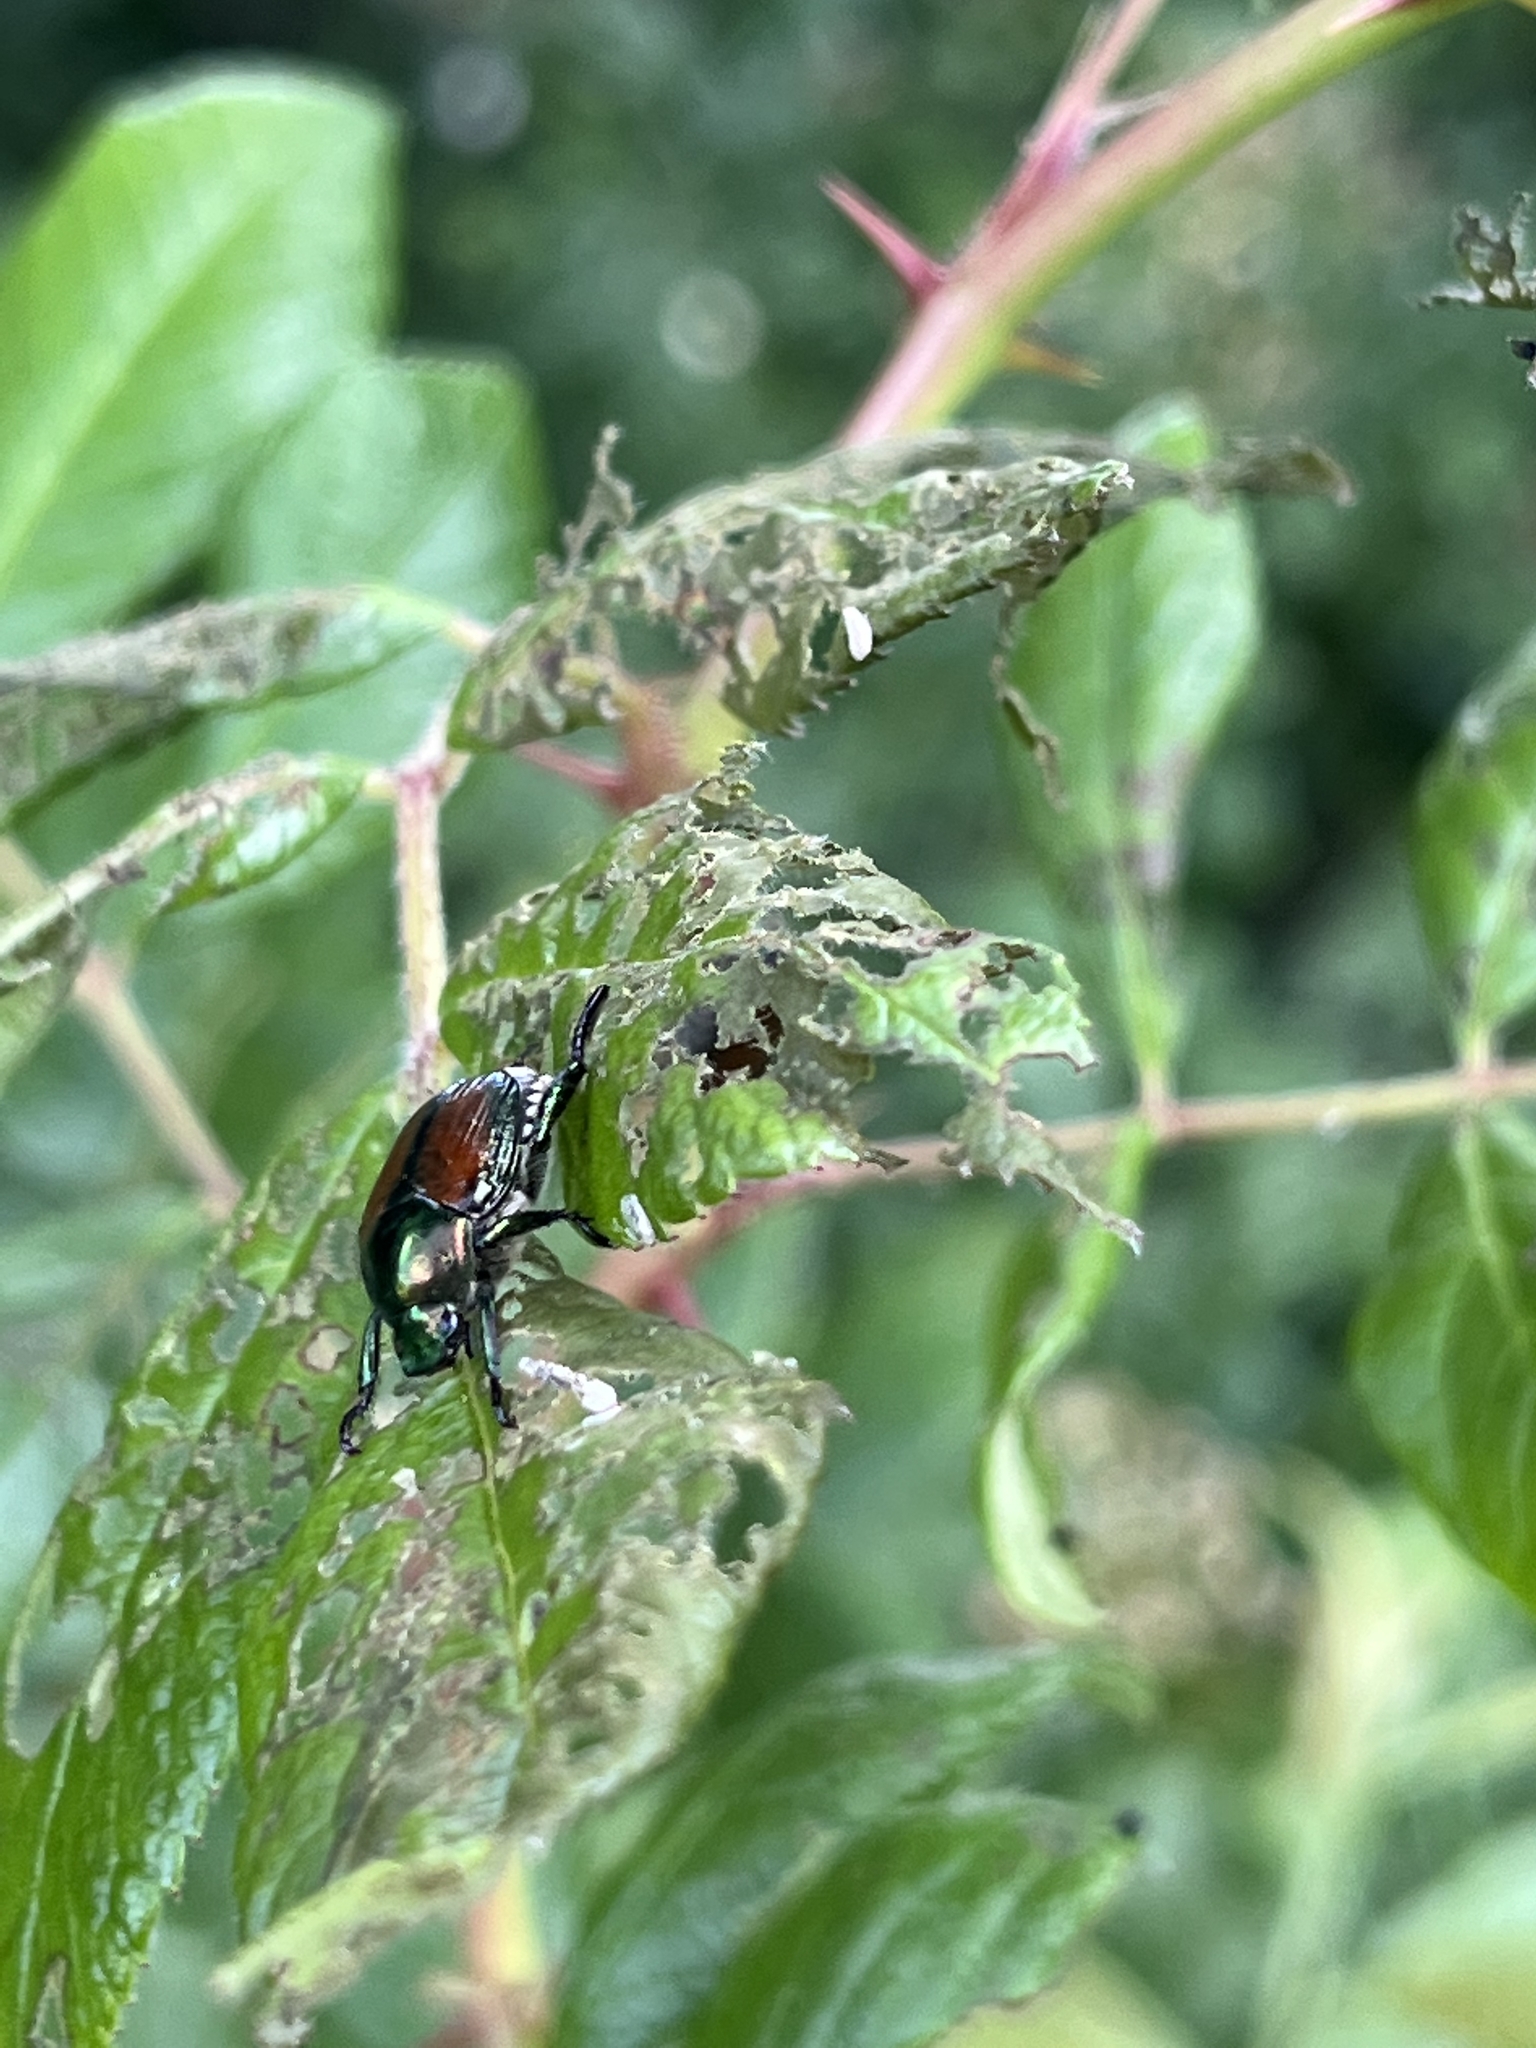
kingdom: Animalia
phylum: Arthropoda
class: Insecta
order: Coleoptera
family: Scarabaeidae
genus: Popillia
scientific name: Popillia japonica
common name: Japanese beetle
